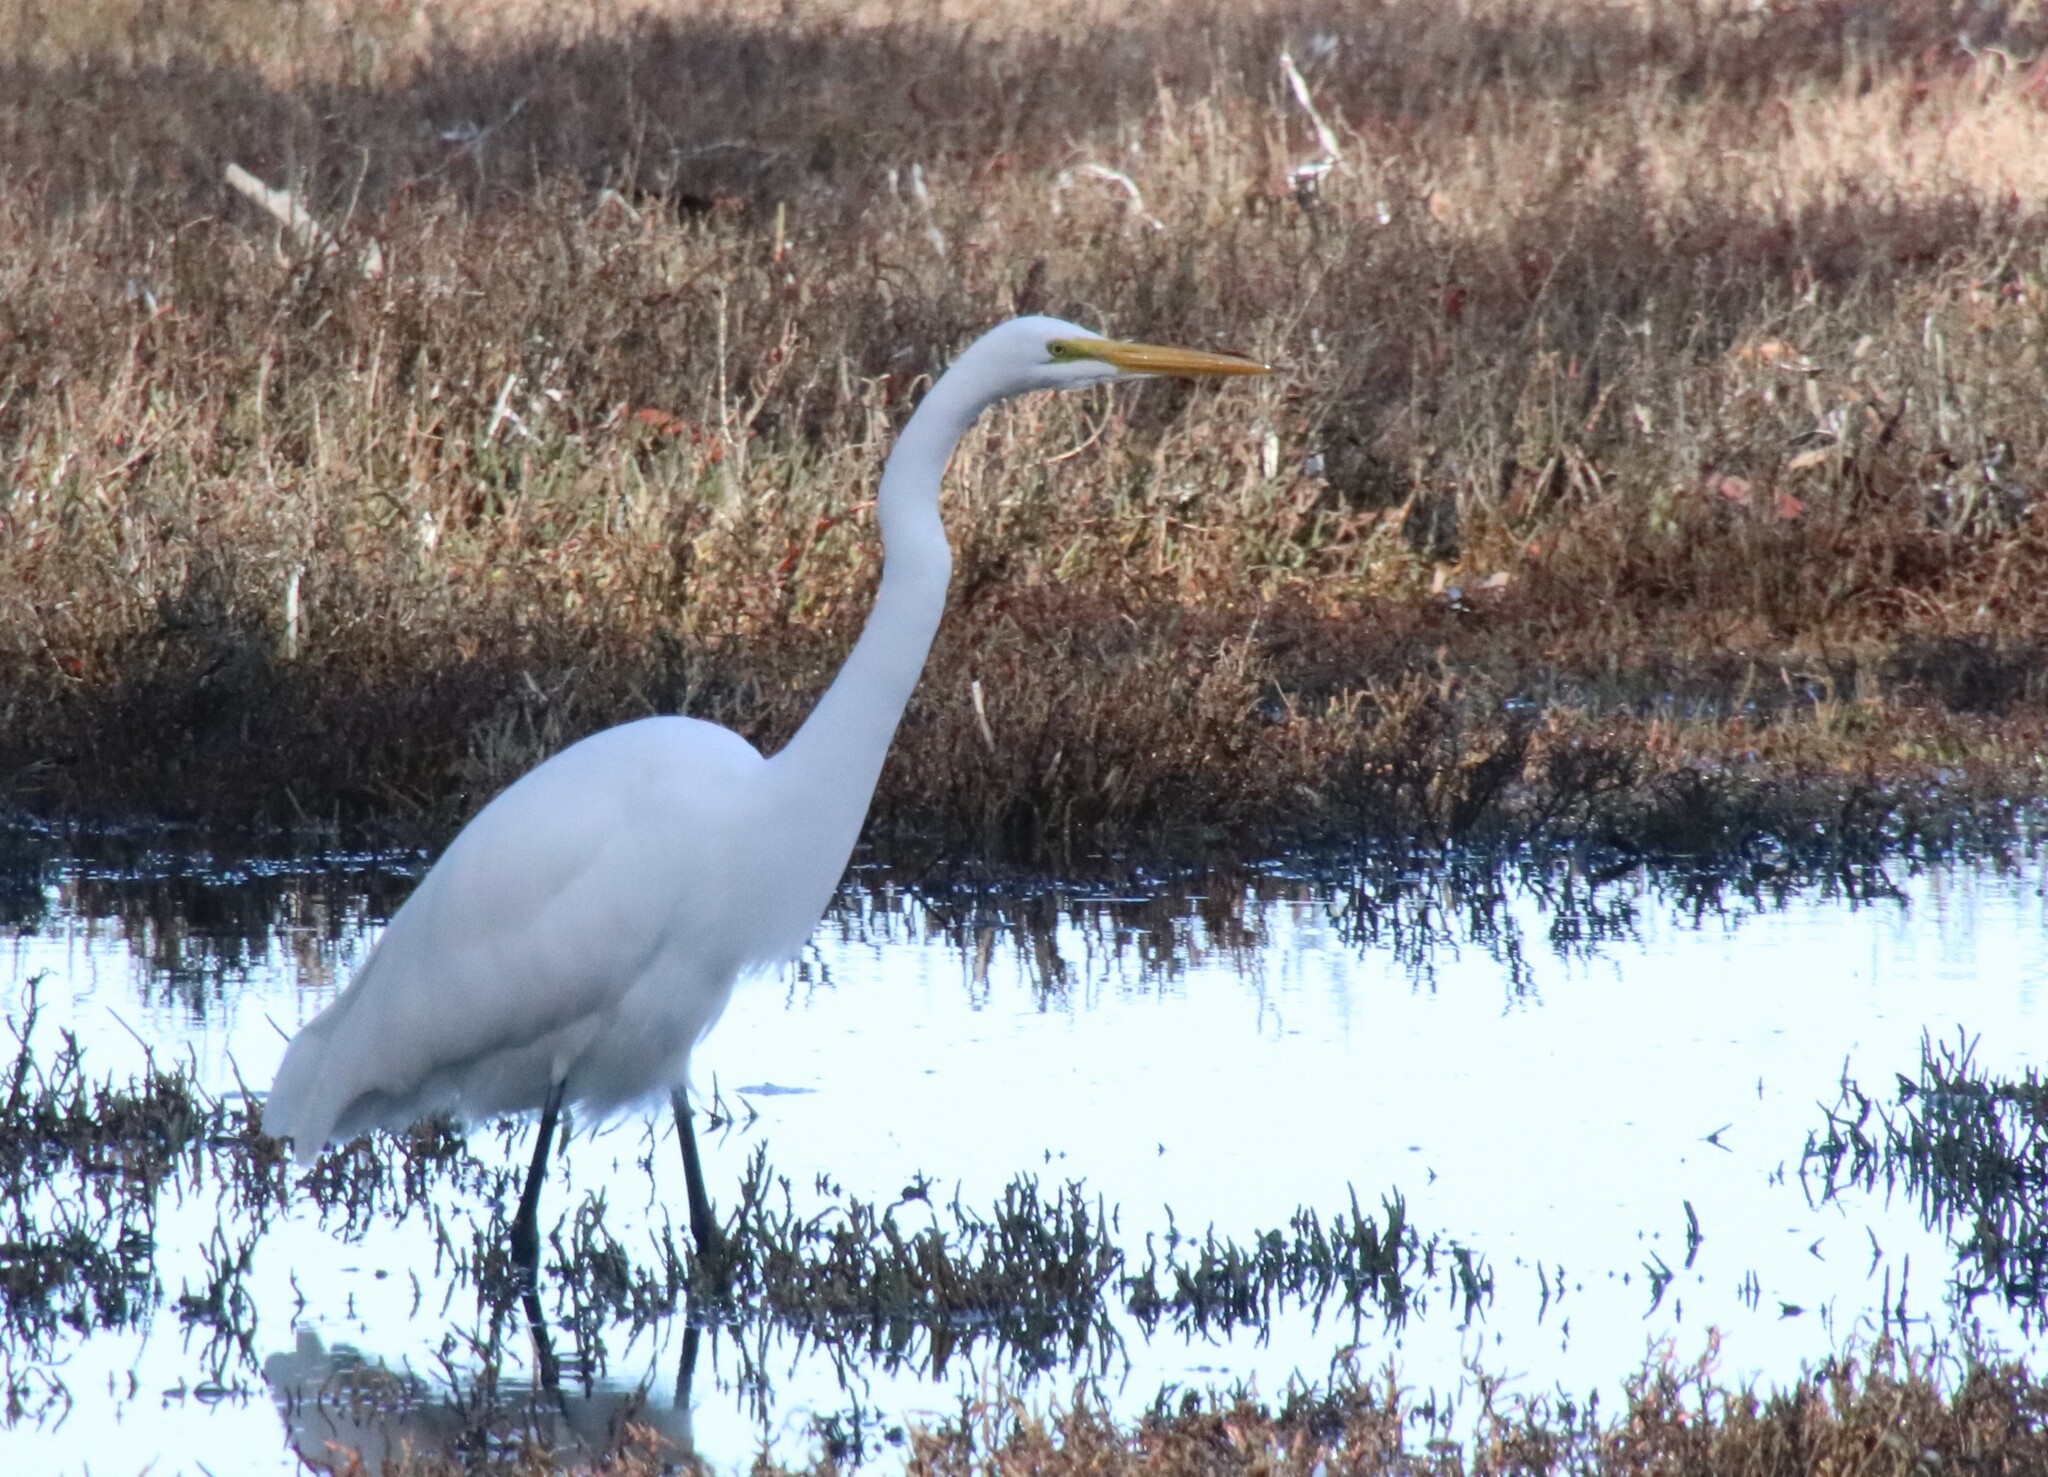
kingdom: Animalia
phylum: Chordata
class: Aves
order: Pelecaniformes
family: Ardeidae
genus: Ardea
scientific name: Ardea alba
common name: Great egret
